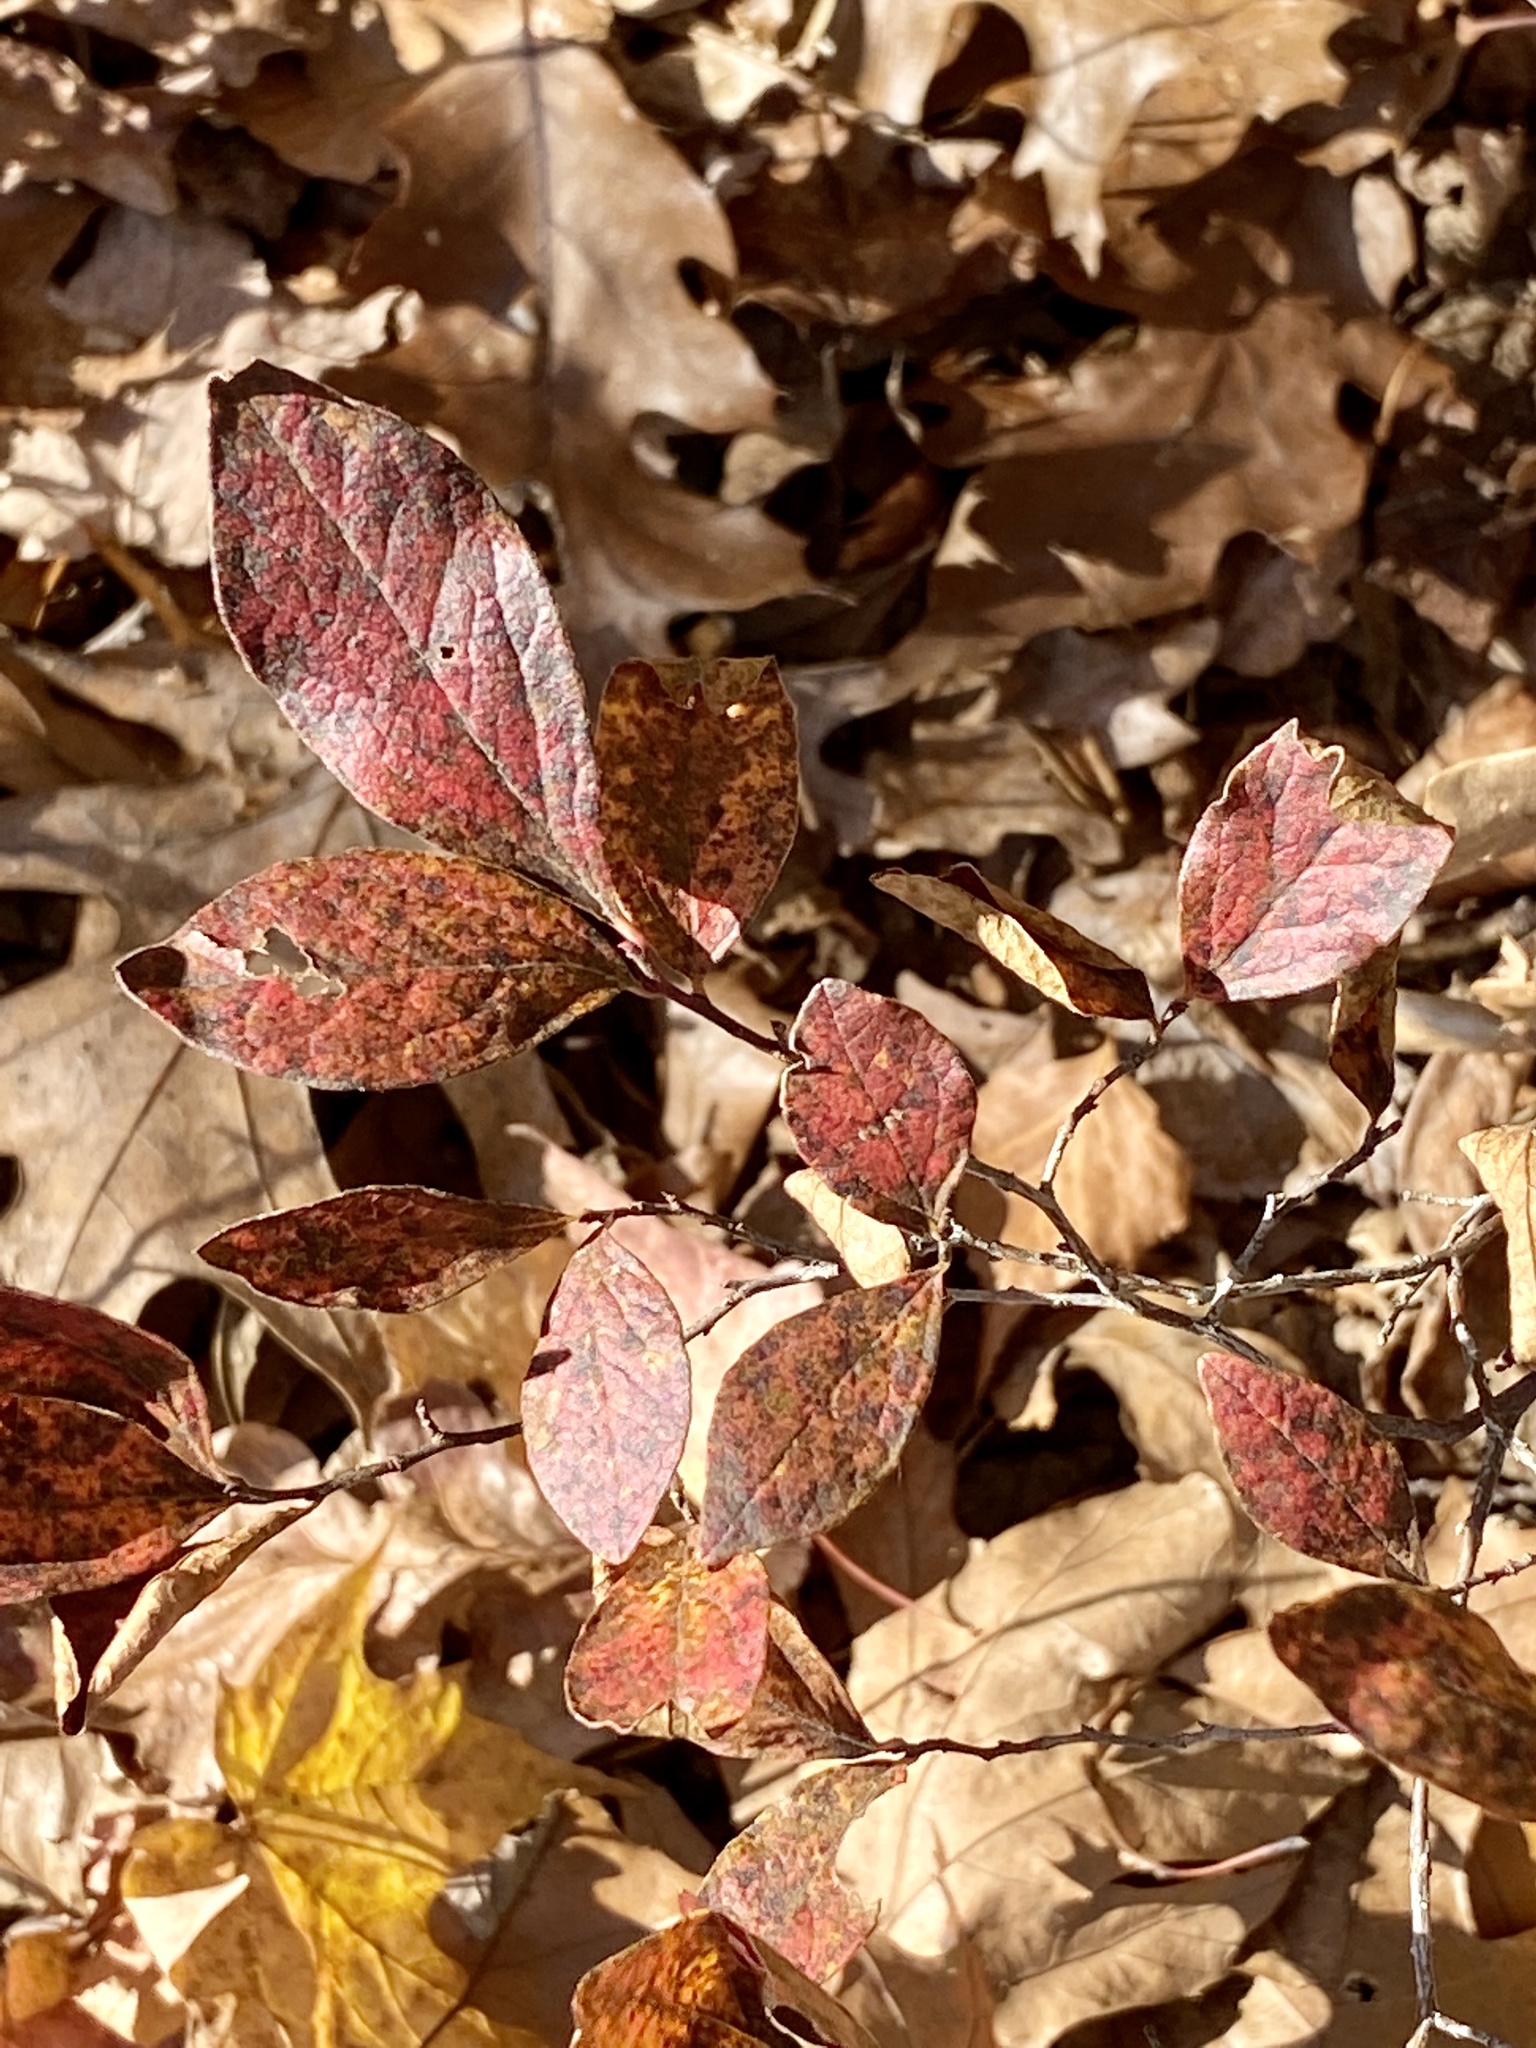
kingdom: Plantae
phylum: Tracheophyta
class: Magnoliopsida
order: Ericales
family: Ericaceae
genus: Gaylussacia
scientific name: Gaylussacia baccata
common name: Black huckleberry
